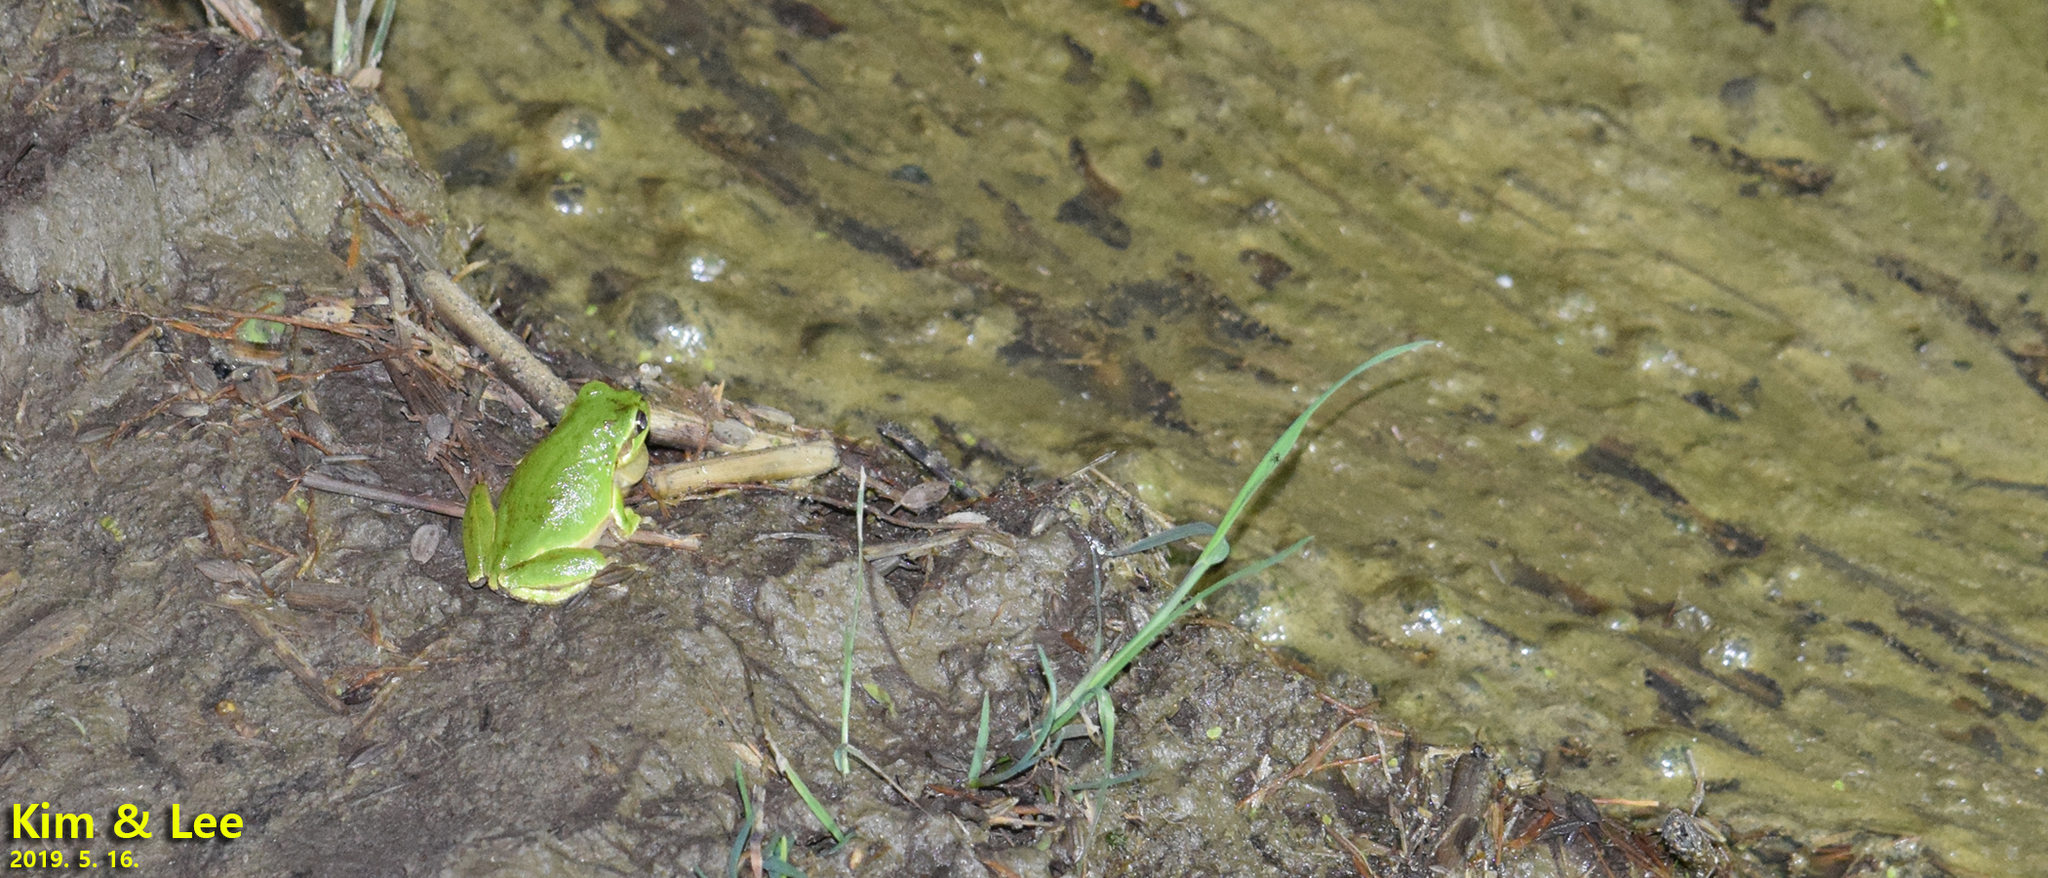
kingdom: Animalia
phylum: Chordata
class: Amphibia
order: Anura
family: Hylidae
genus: Dryophytes
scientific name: Dryophytes japonicus
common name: Japanese treefrog
